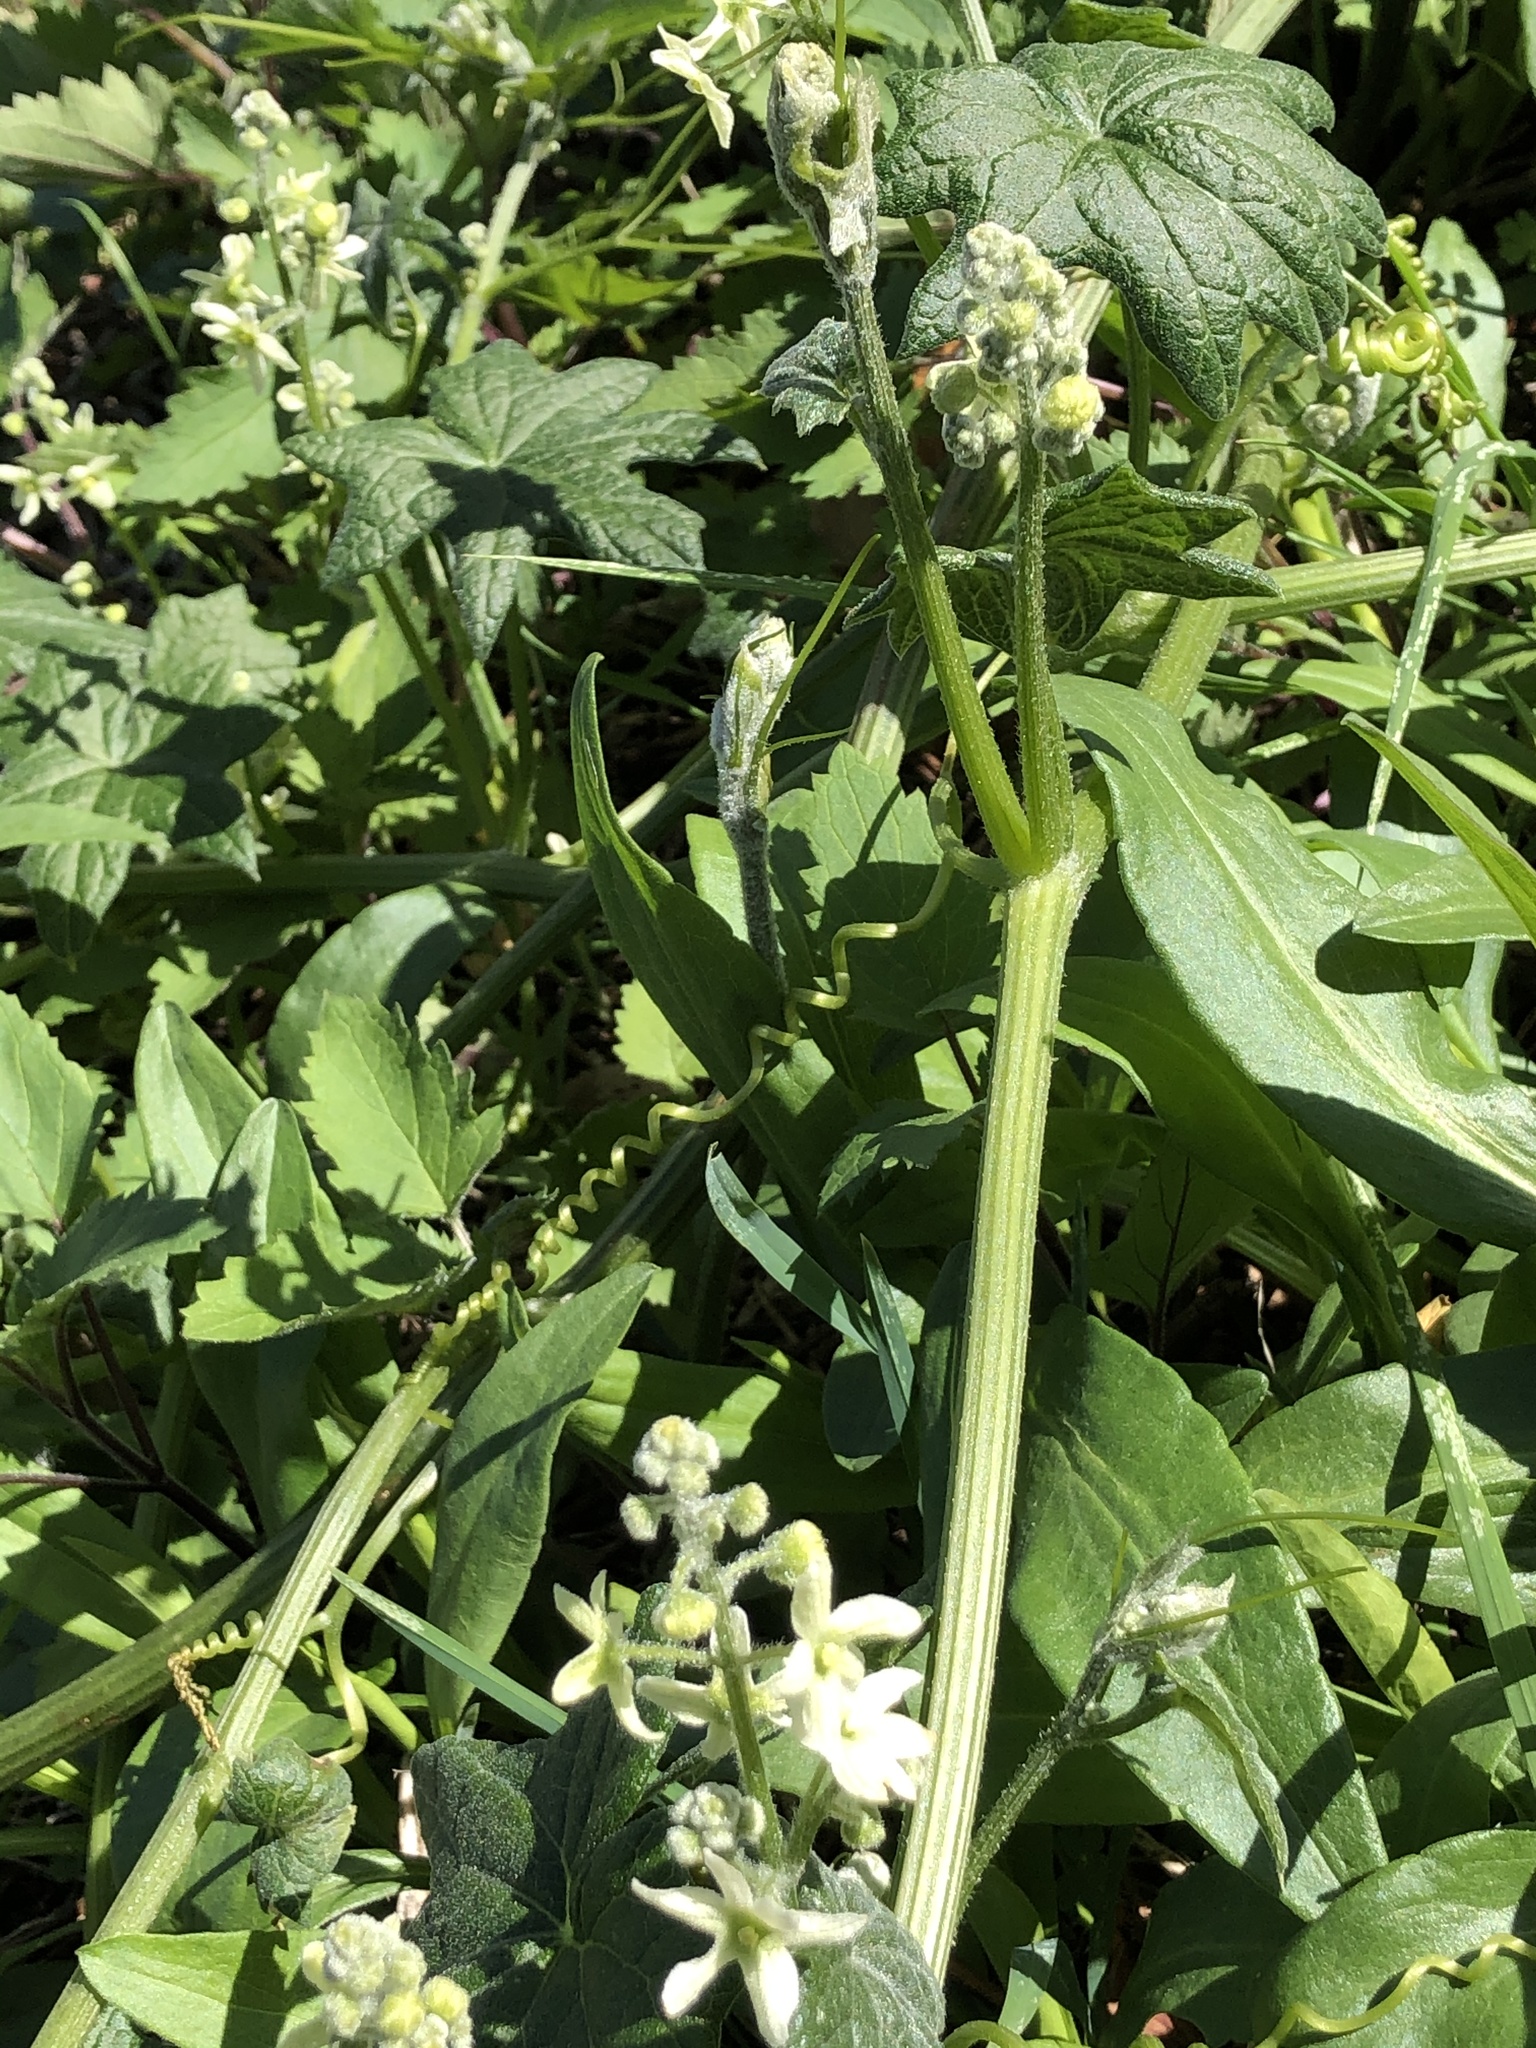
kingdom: Plantae
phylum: Tracheophyta
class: Magnoliopsida
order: Cucurbitales
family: Cucurbitaceae
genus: Marah
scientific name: Marah fabacea
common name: California manroot
